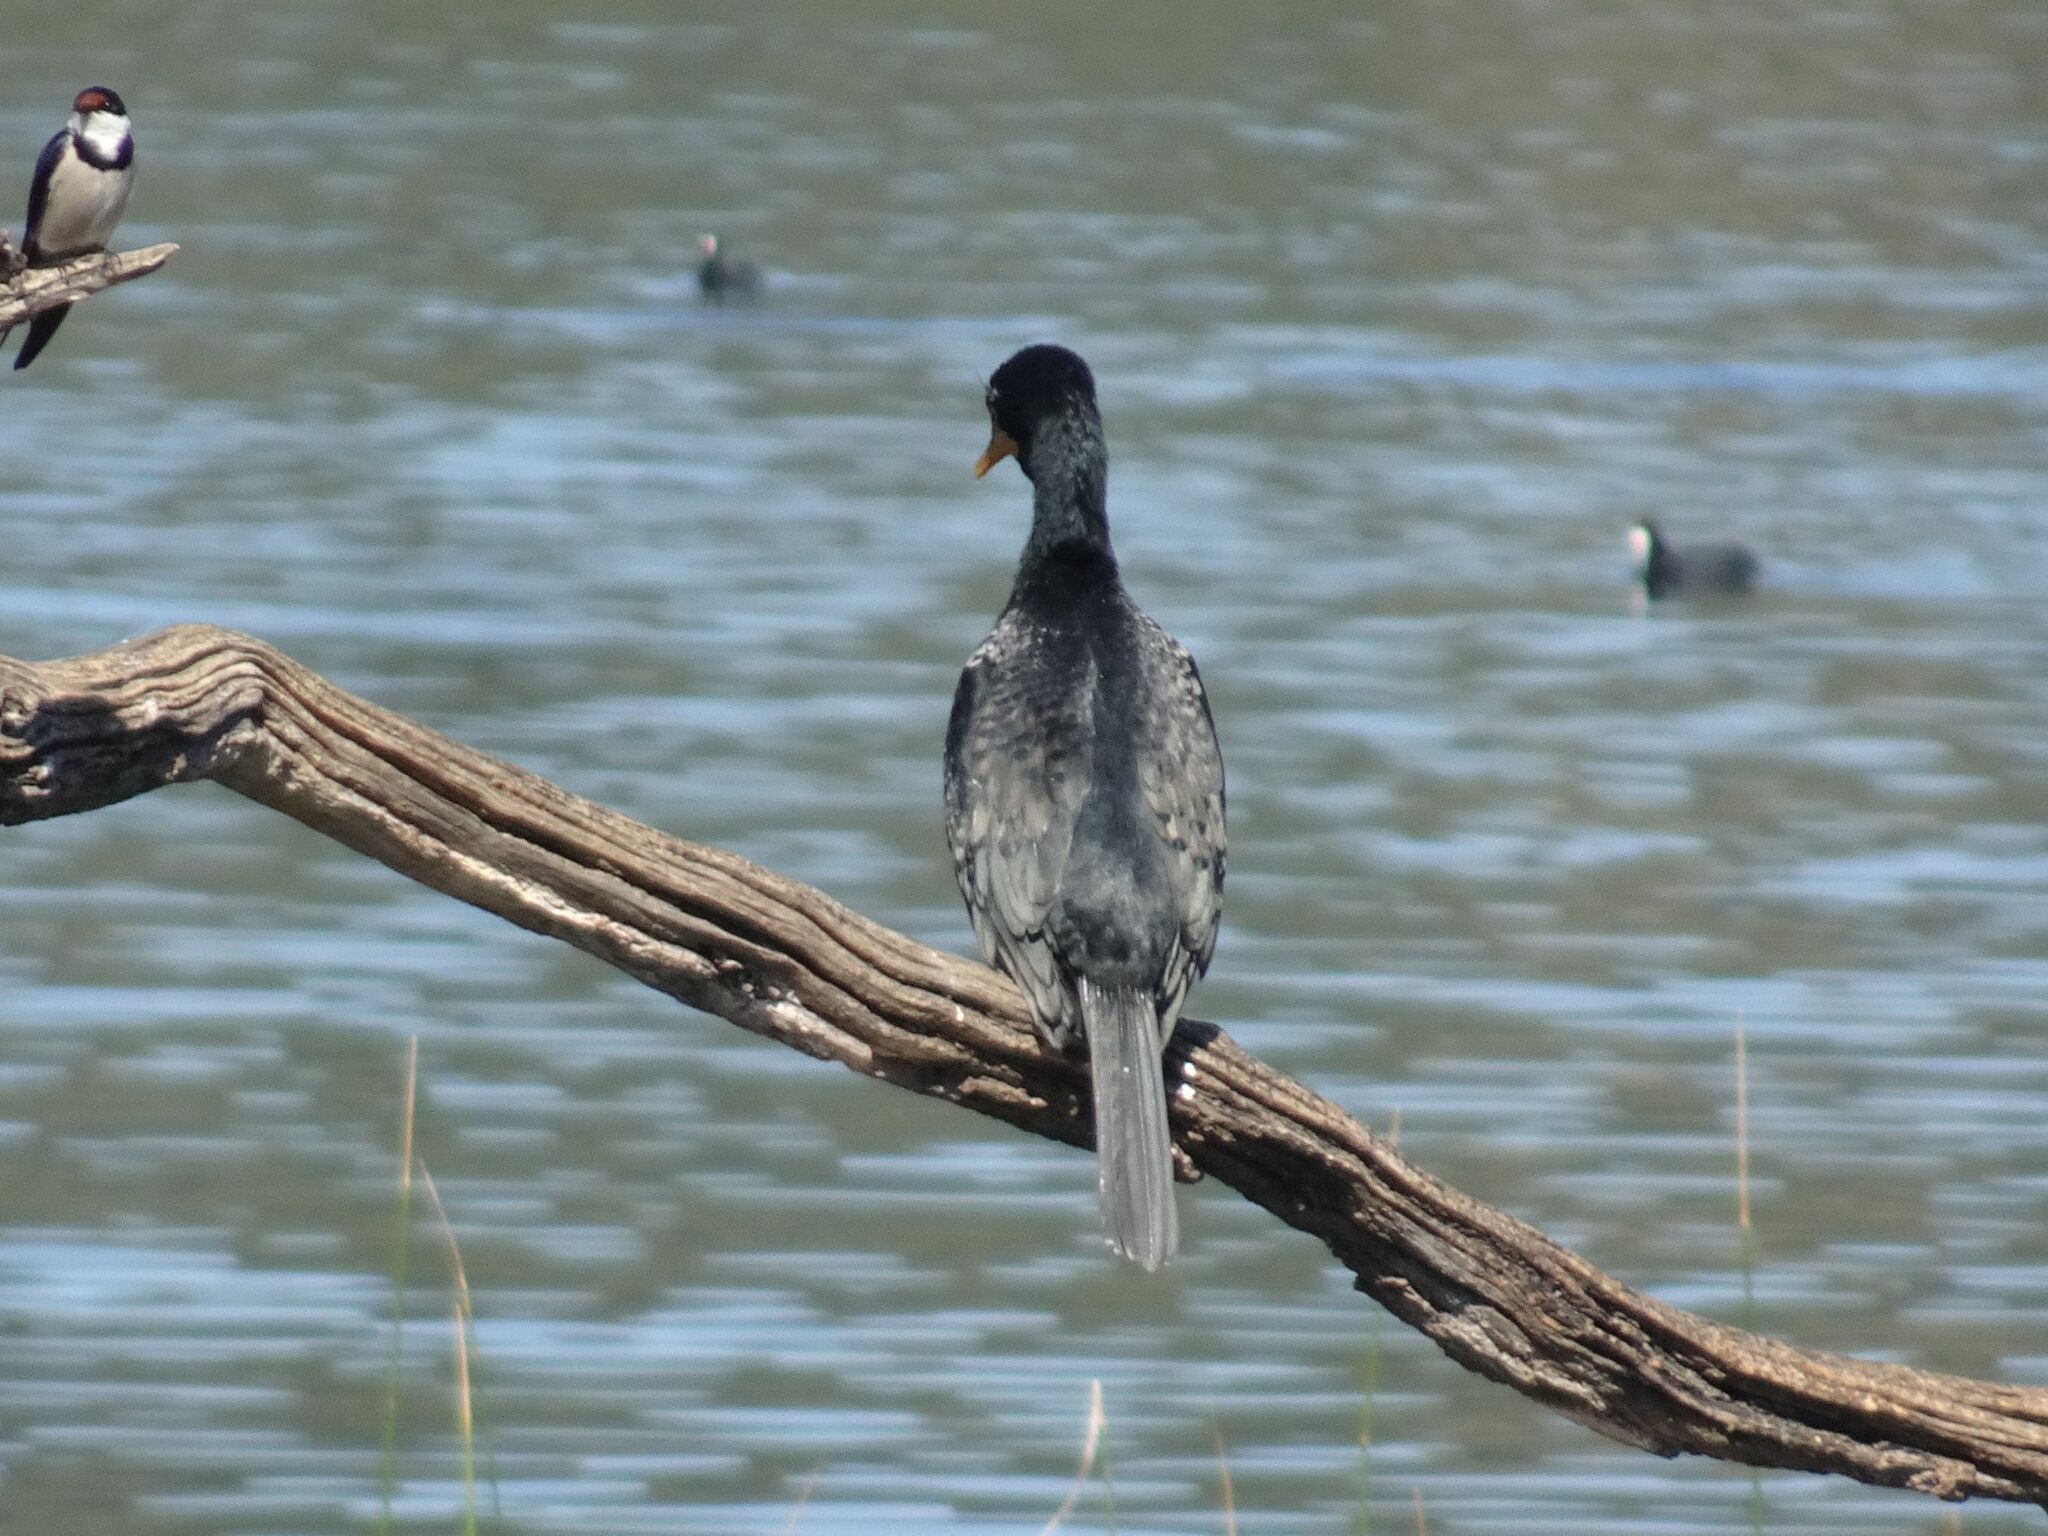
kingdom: Animalia
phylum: Chordata
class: Aves
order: Suliformes
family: Phalacrocoracidae
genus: Microcarbo
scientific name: Microcarbo africanus
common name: Long-tailed cormorant
